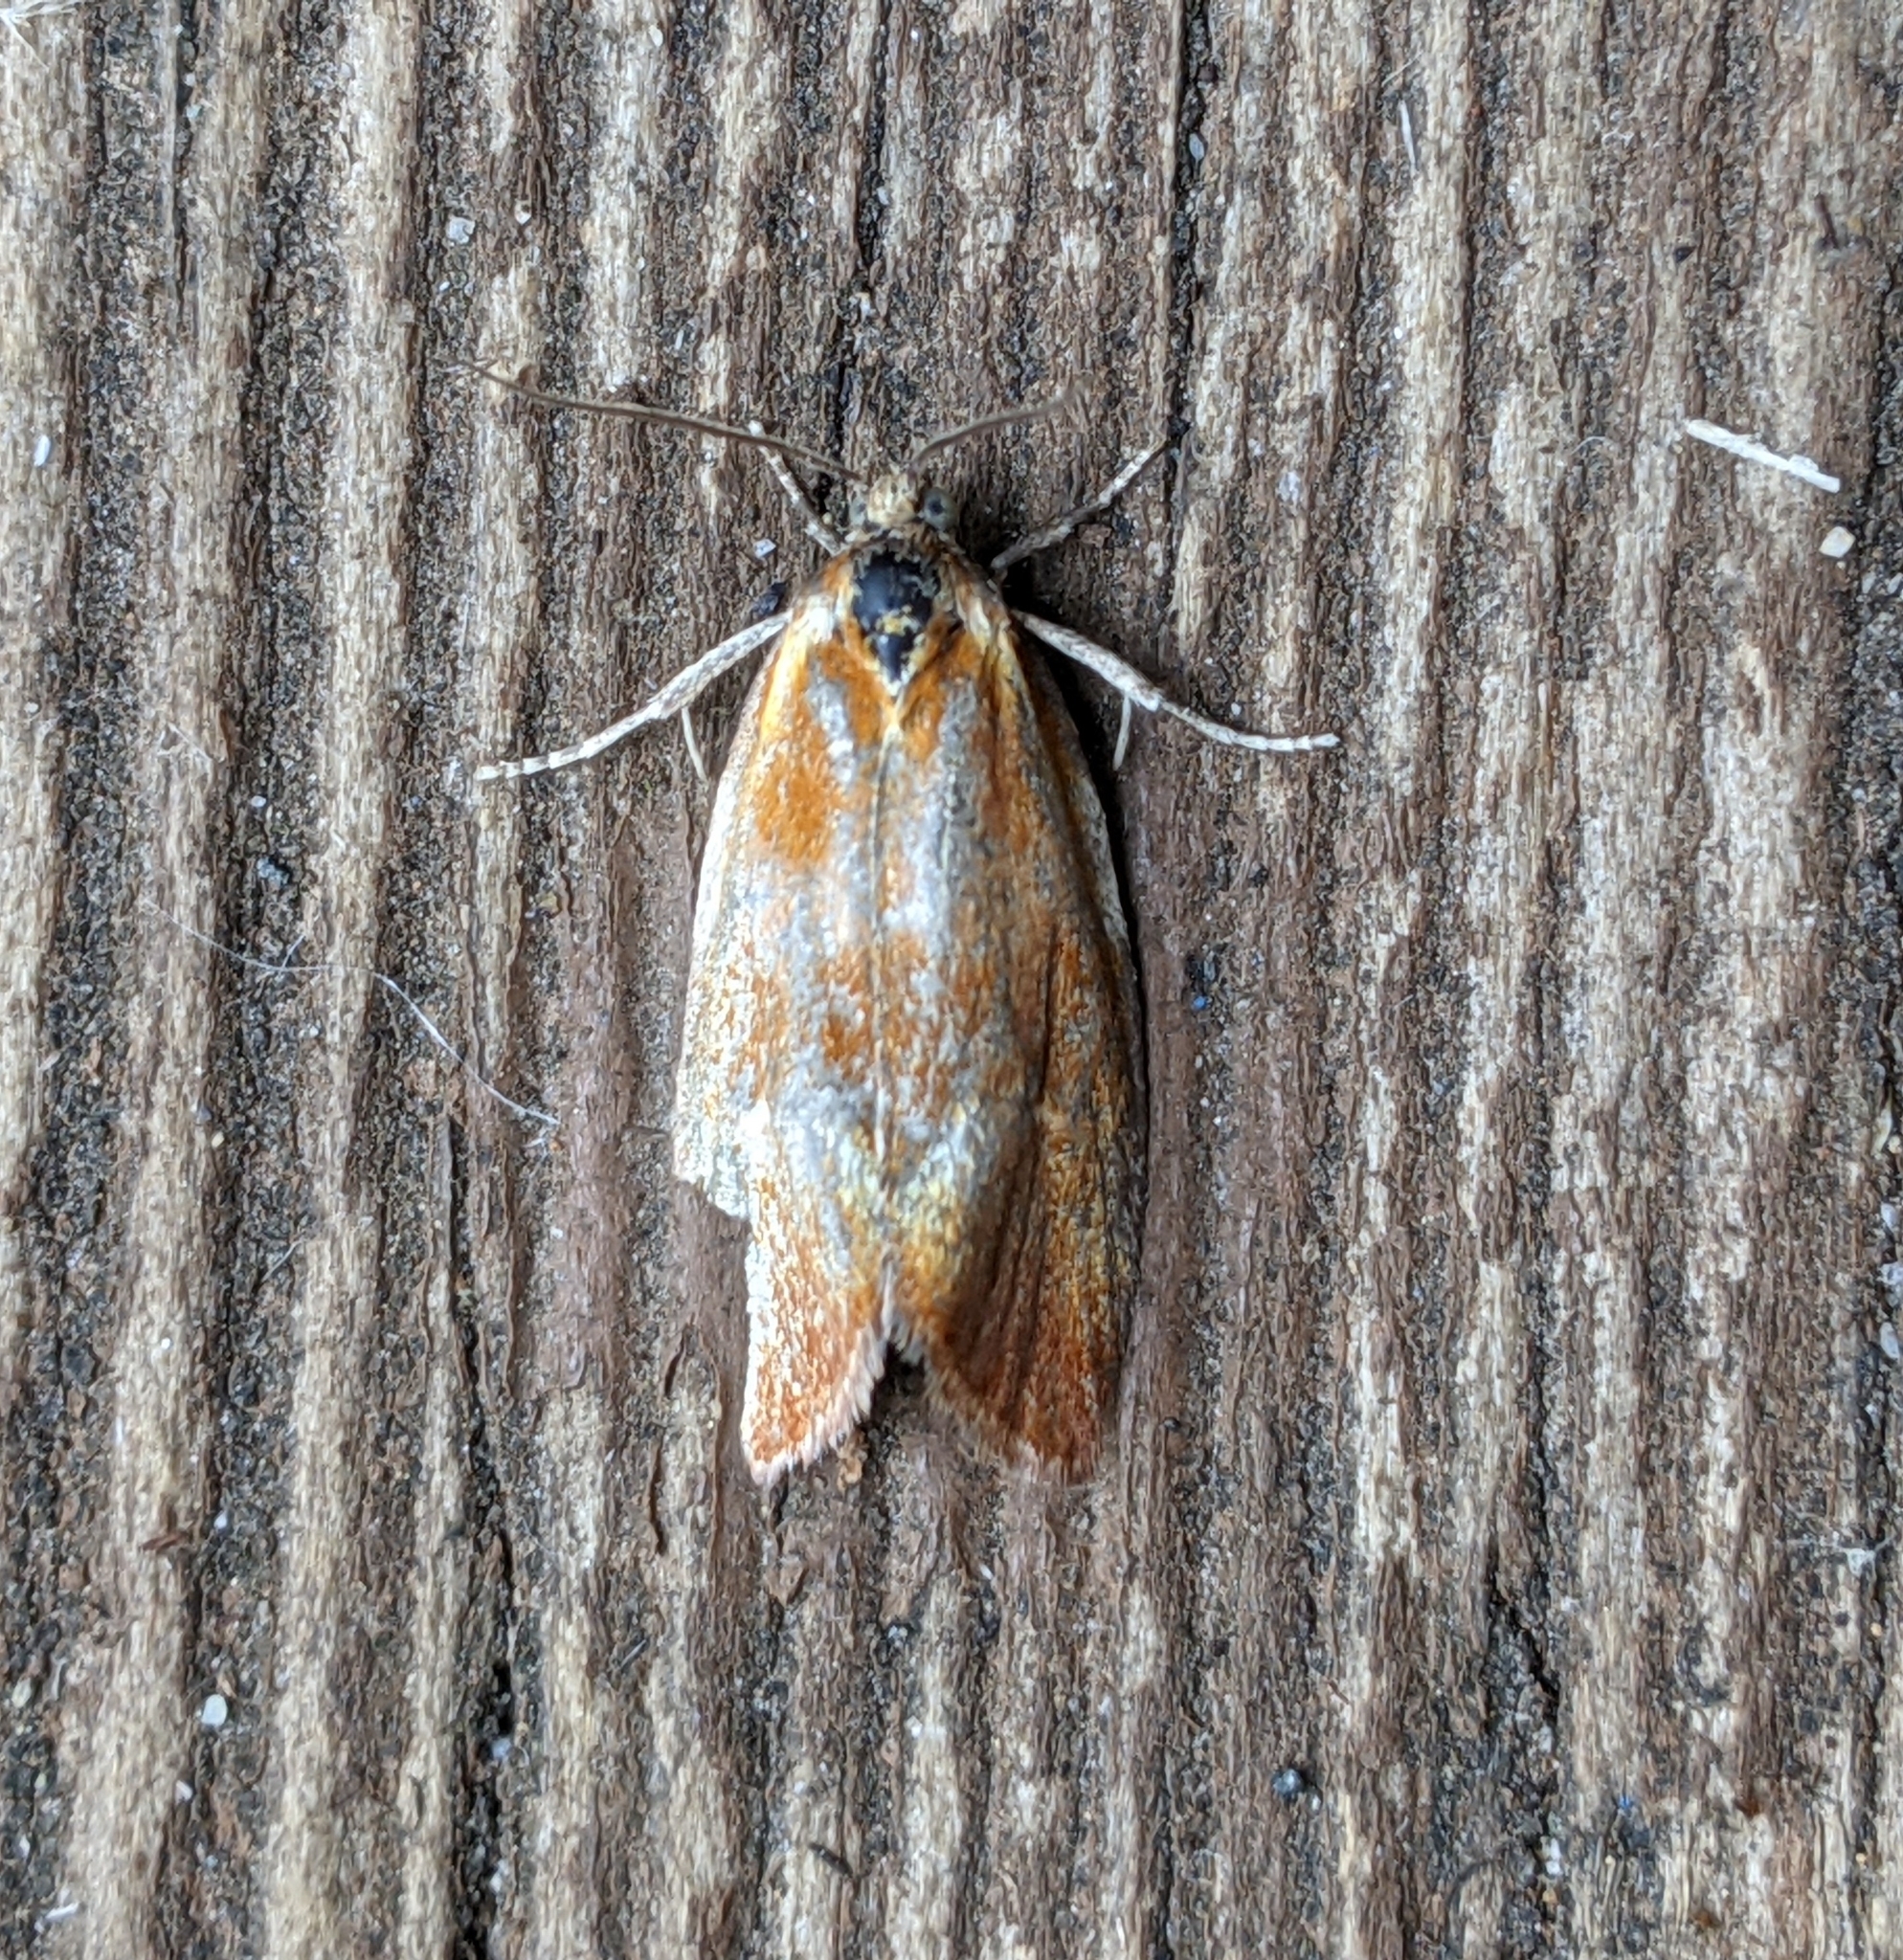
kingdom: Animalia
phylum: Arthropoda
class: Insecta
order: Lepidoptera
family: Tortricidae
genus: Eulia
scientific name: Eulia ministrana
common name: Brassy twist
